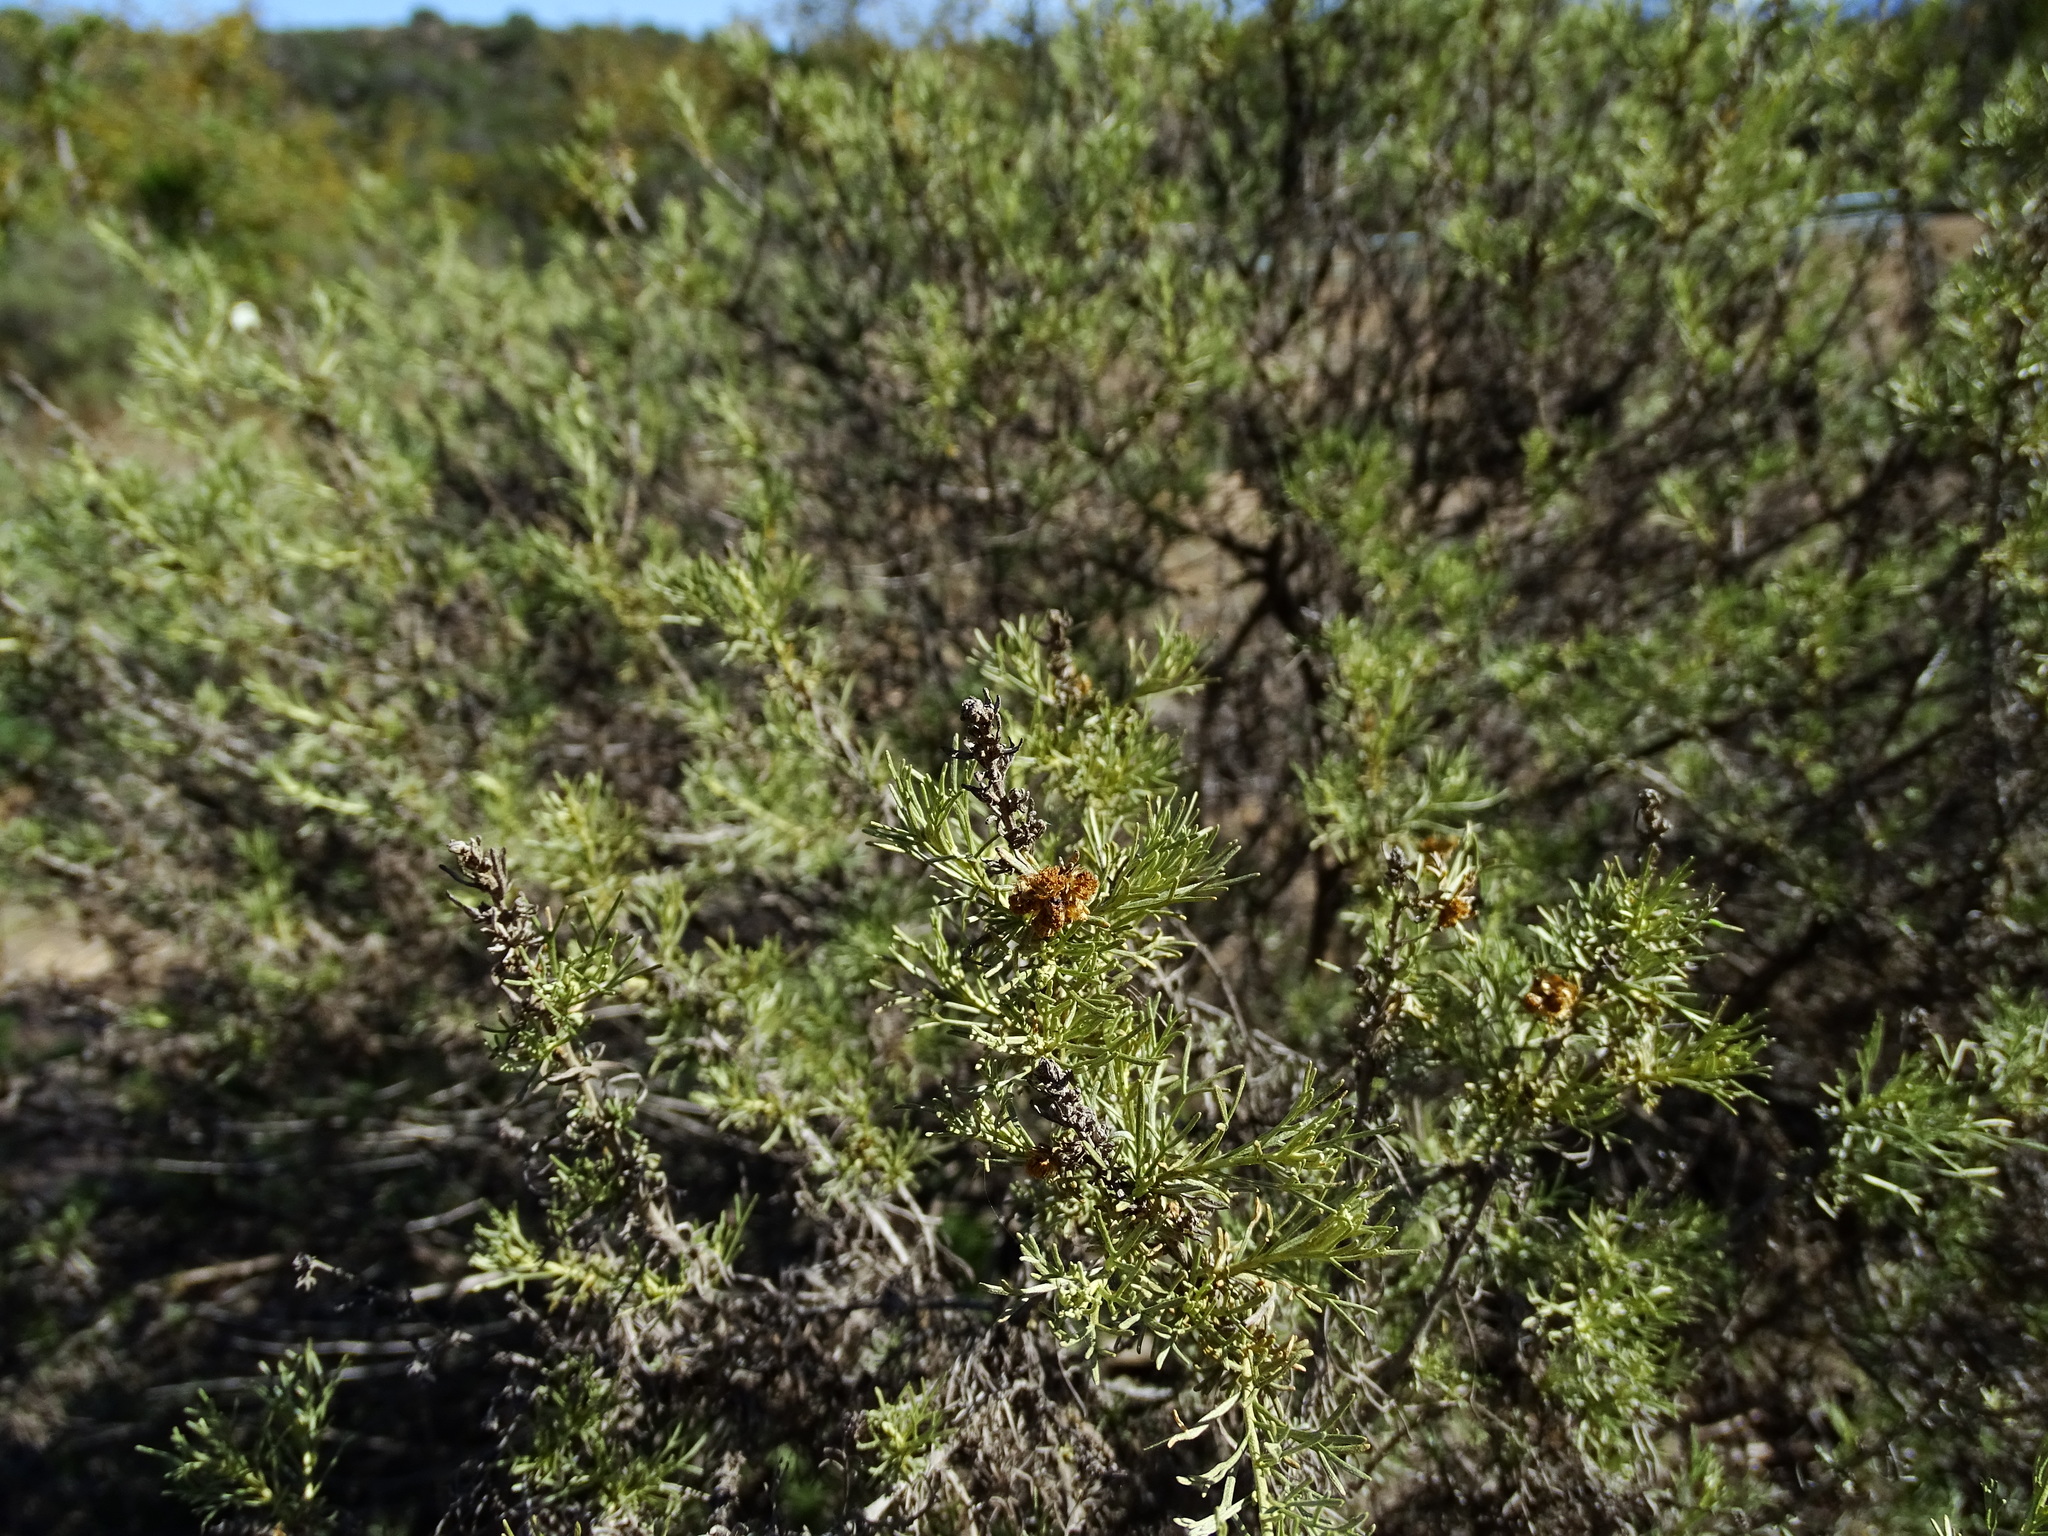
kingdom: Plantae
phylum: Tracheophyta
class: Magnoliopsida
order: Asterales
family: Asteraceae
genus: Artemisia
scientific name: Artemisia californica
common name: California sagebrush
